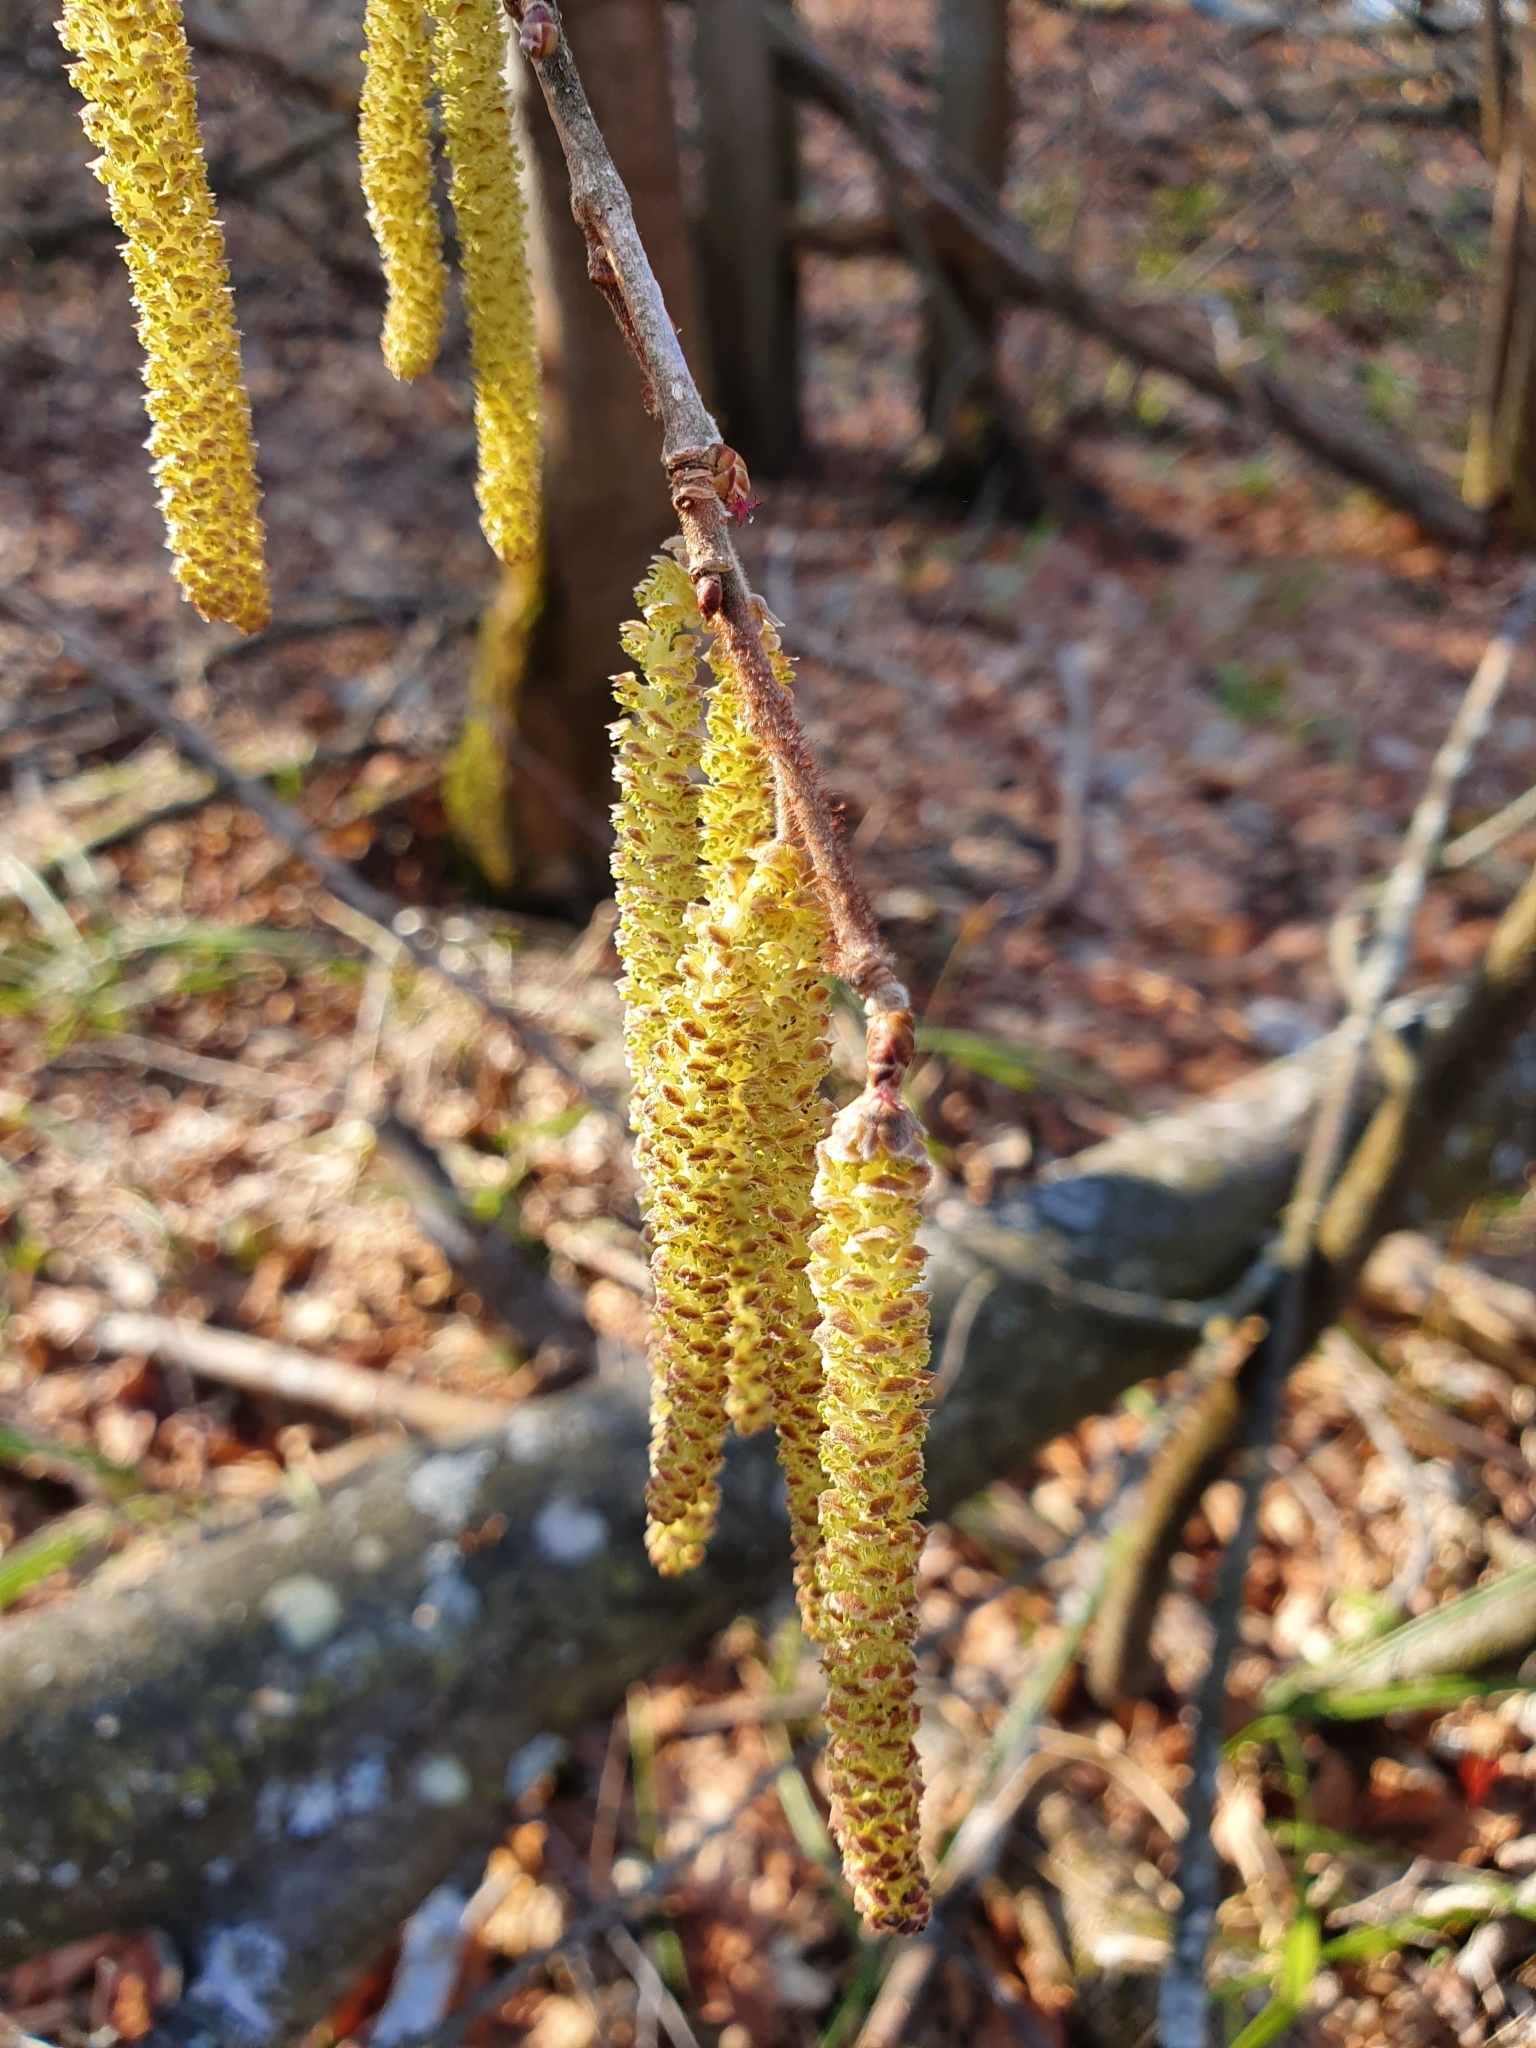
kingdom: Plantae
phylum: Tracheophyta
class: Magnoliopsida
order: Fagales
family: Betulaceae
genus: Corylus
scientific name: Corylus avellana
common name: European hazel
